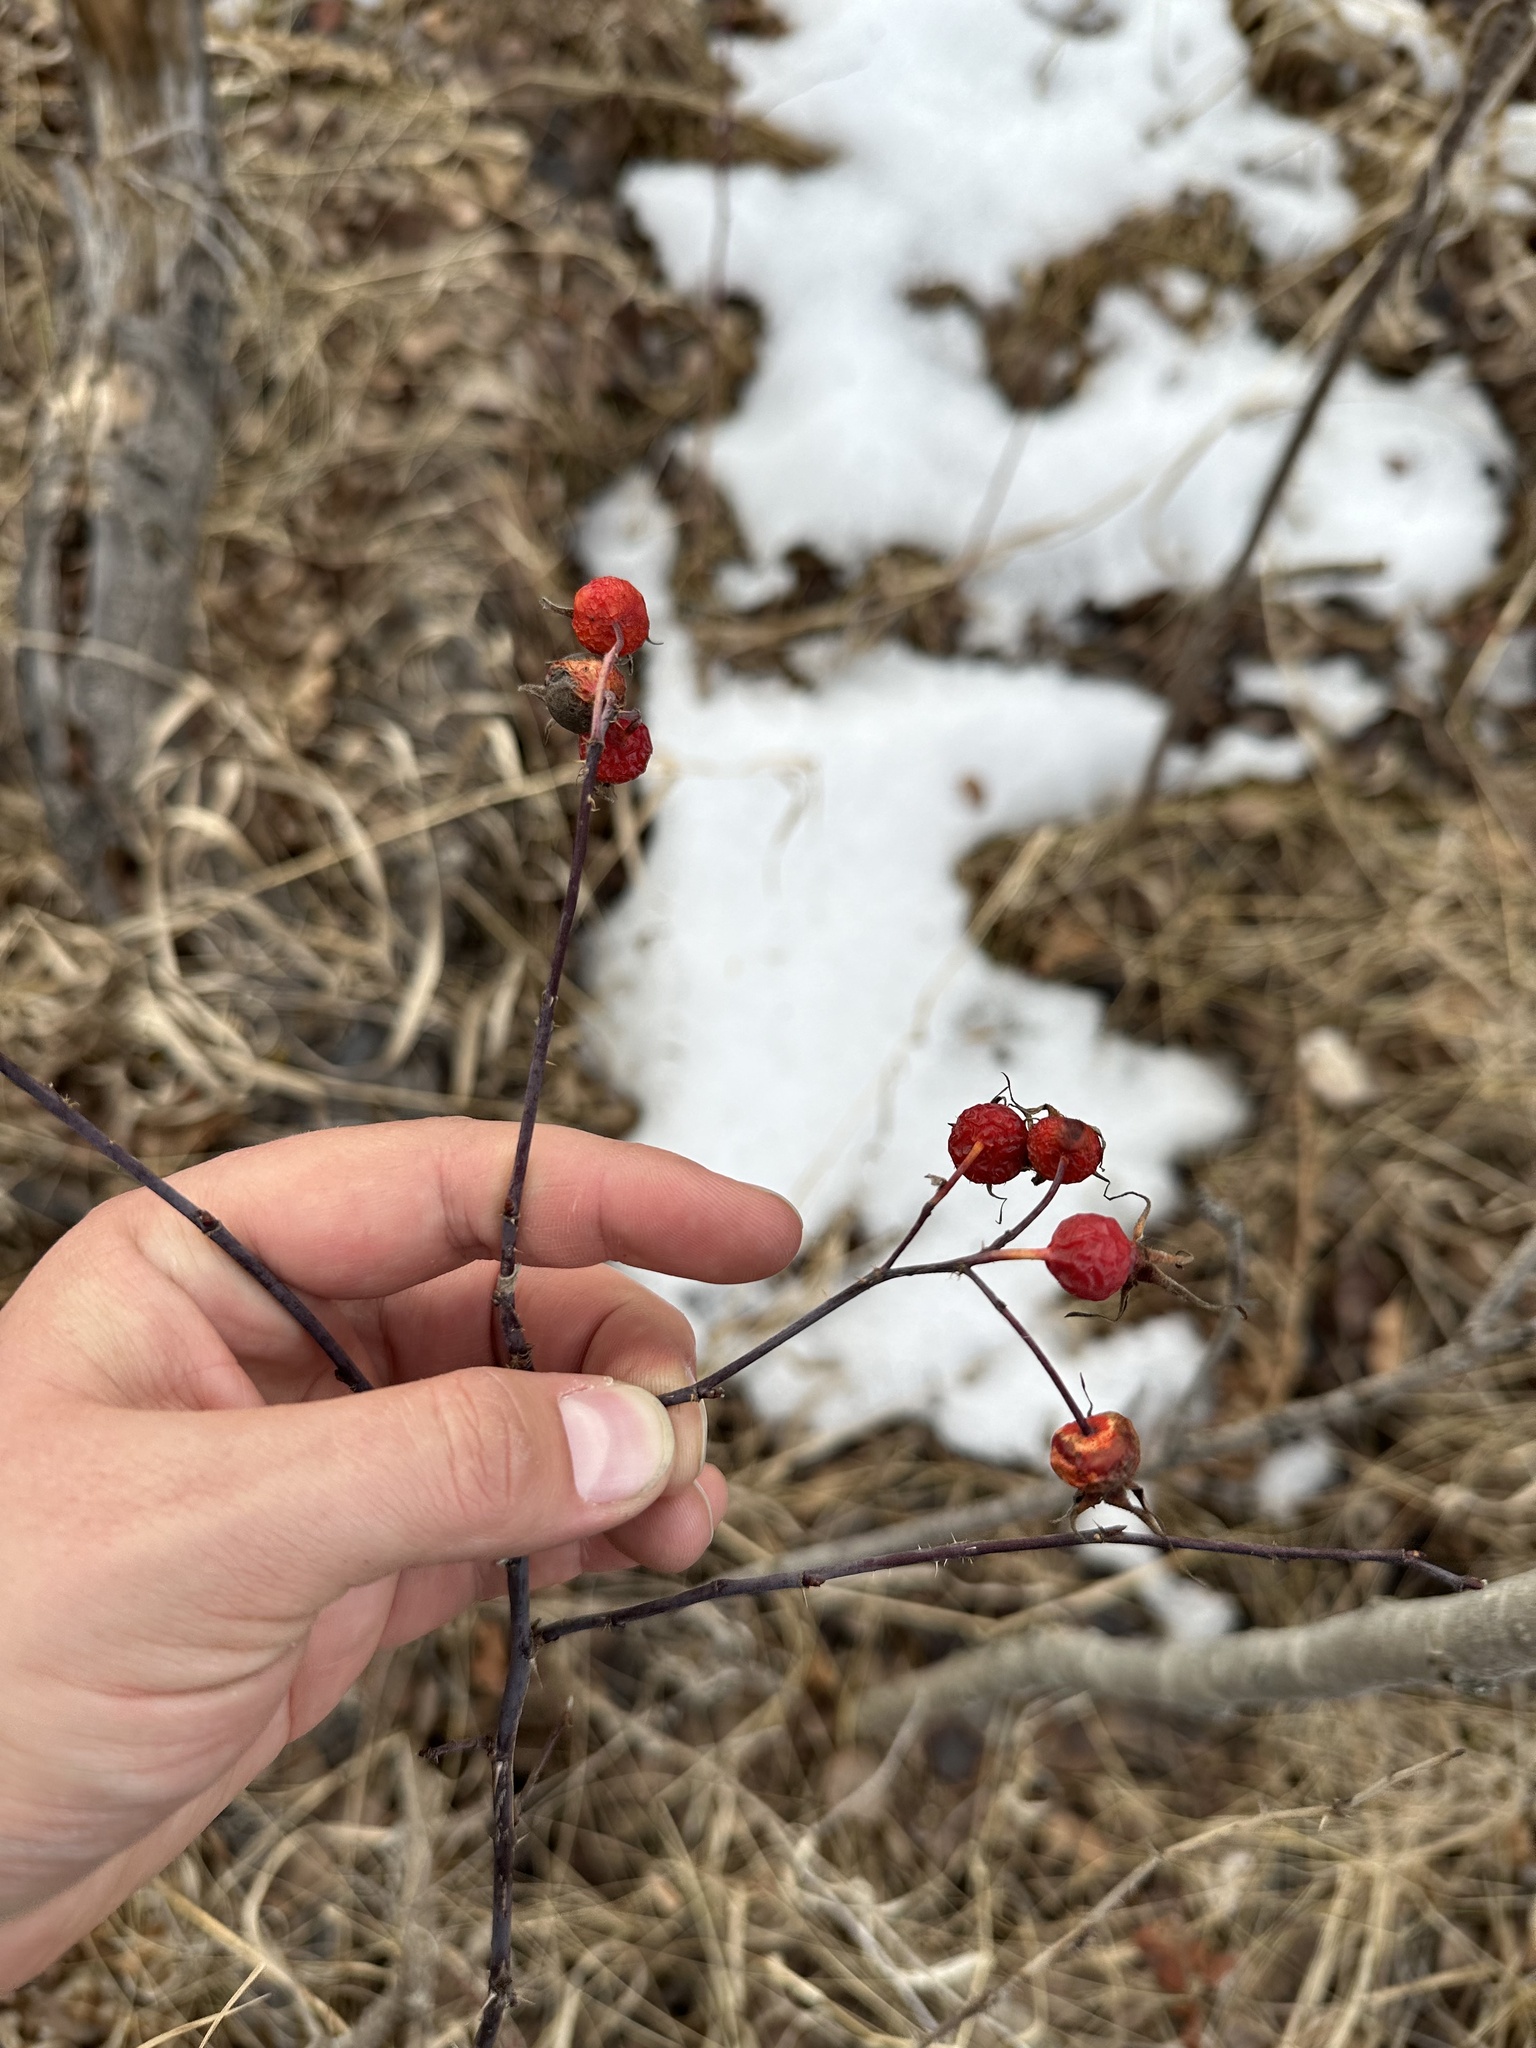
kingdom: Plantae
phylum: Tracheophyta
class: Magnoliopsida
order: Rosales
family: Rosaceae
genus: Rosa
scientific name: Rosa woodsii
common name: Woods's rose
